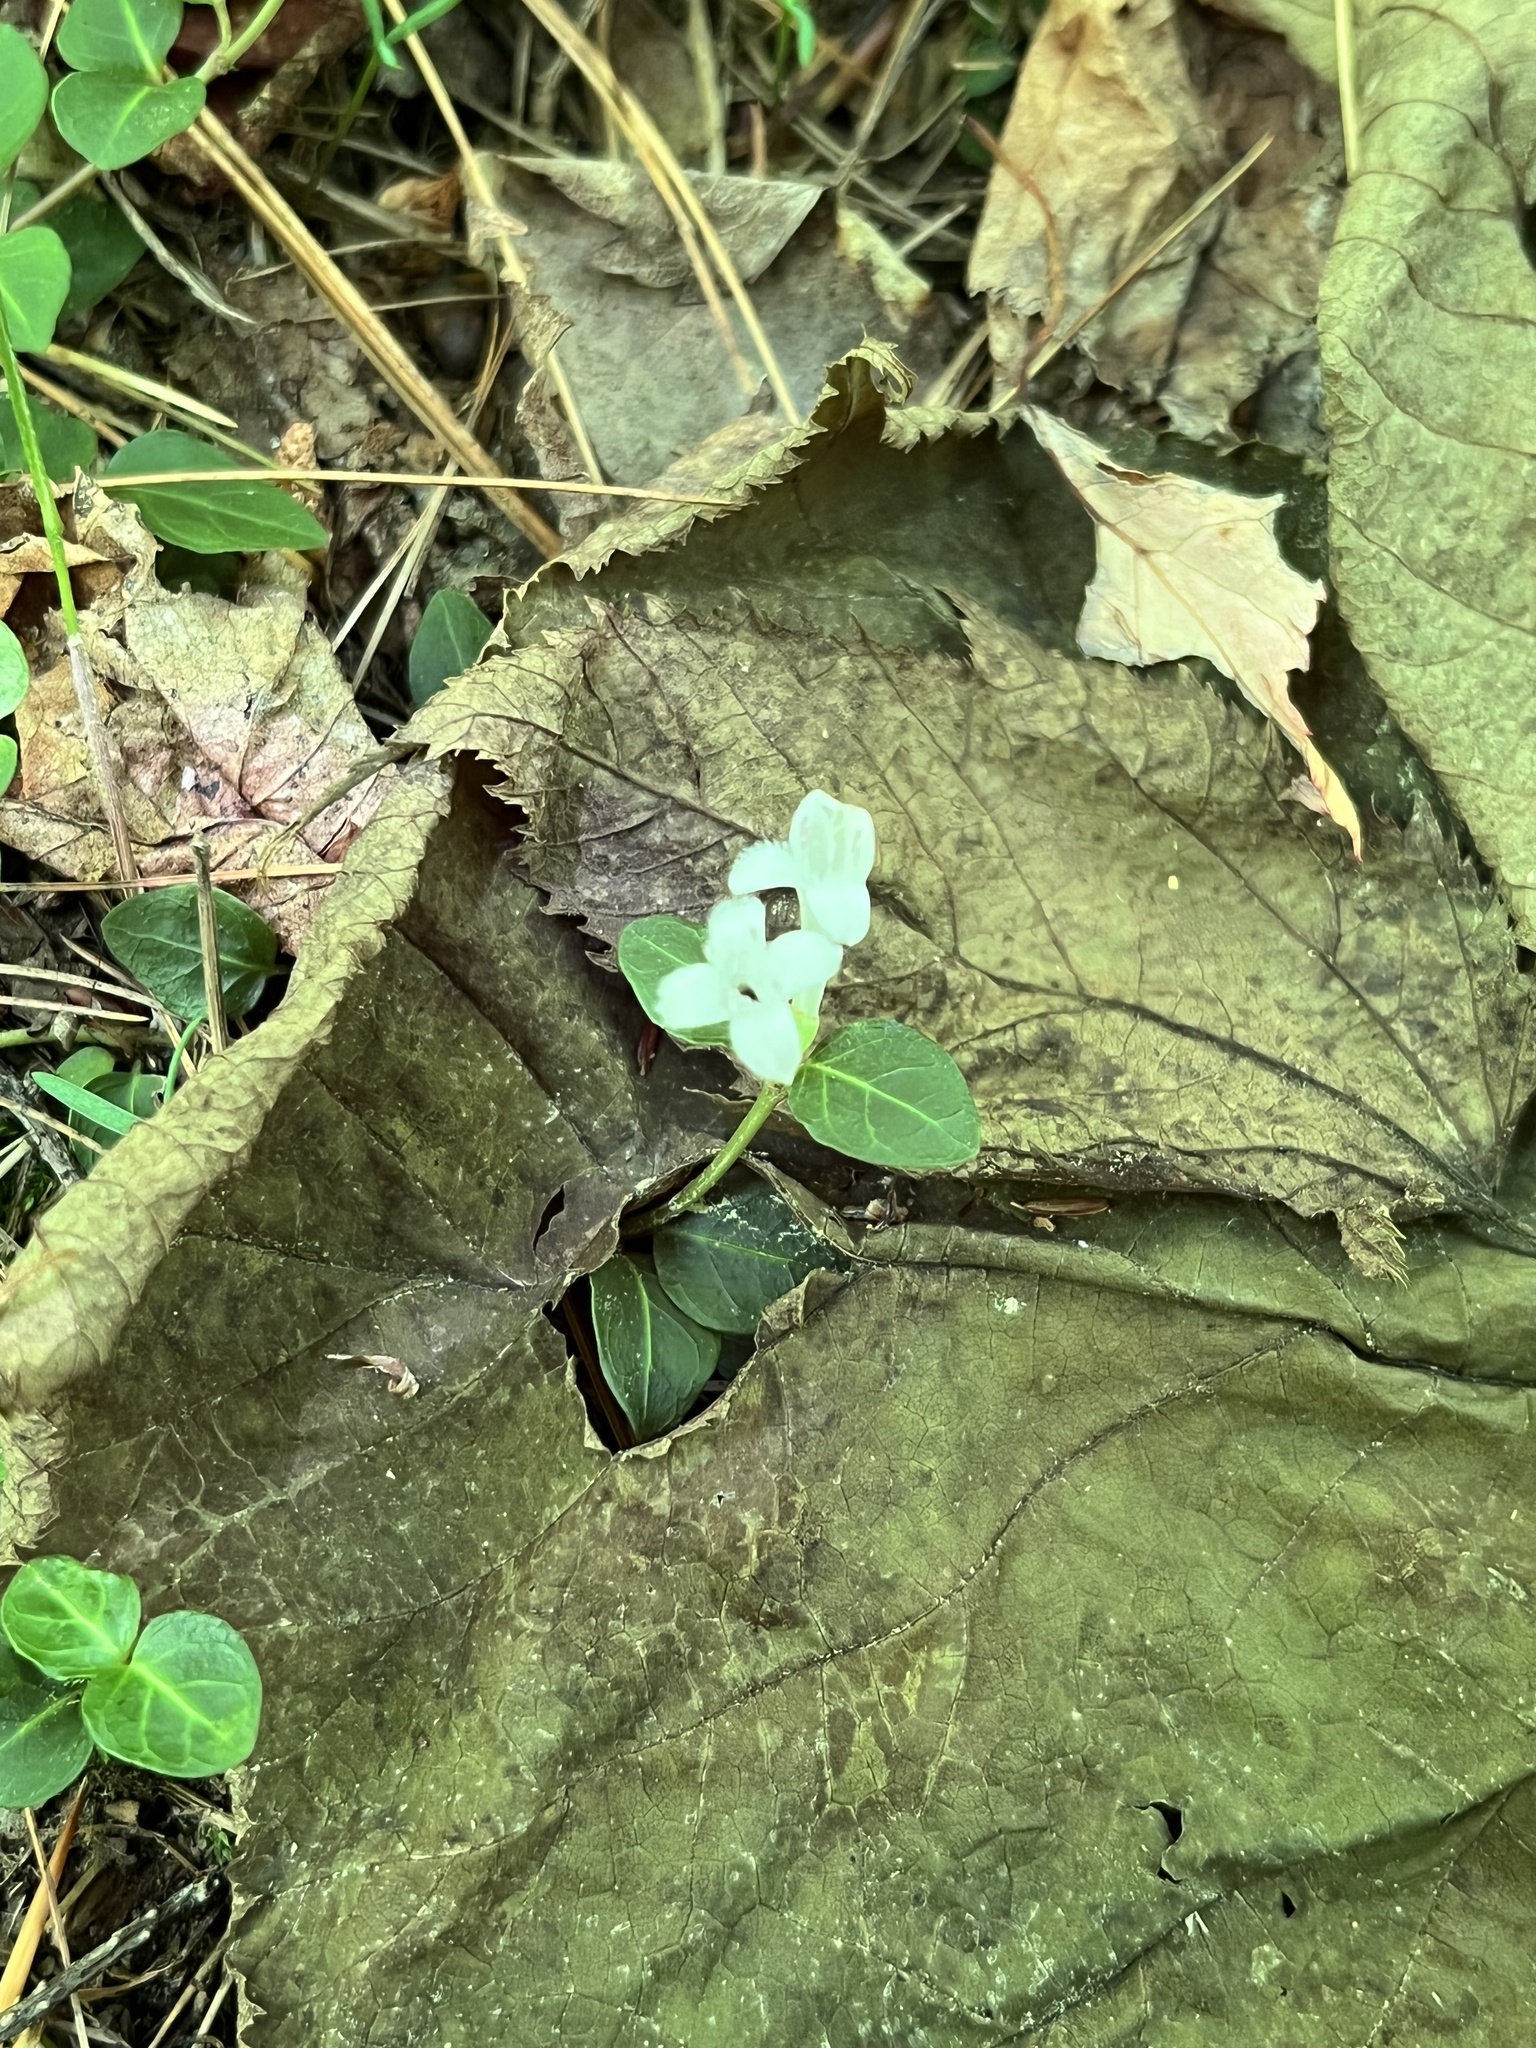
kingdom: Plantae
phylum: Tracheophyta
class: Magnoliopsida
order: Gentianales
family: Rubiaceae
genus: Mitchella
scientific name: Mitchella repens
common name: Partridge-berry
